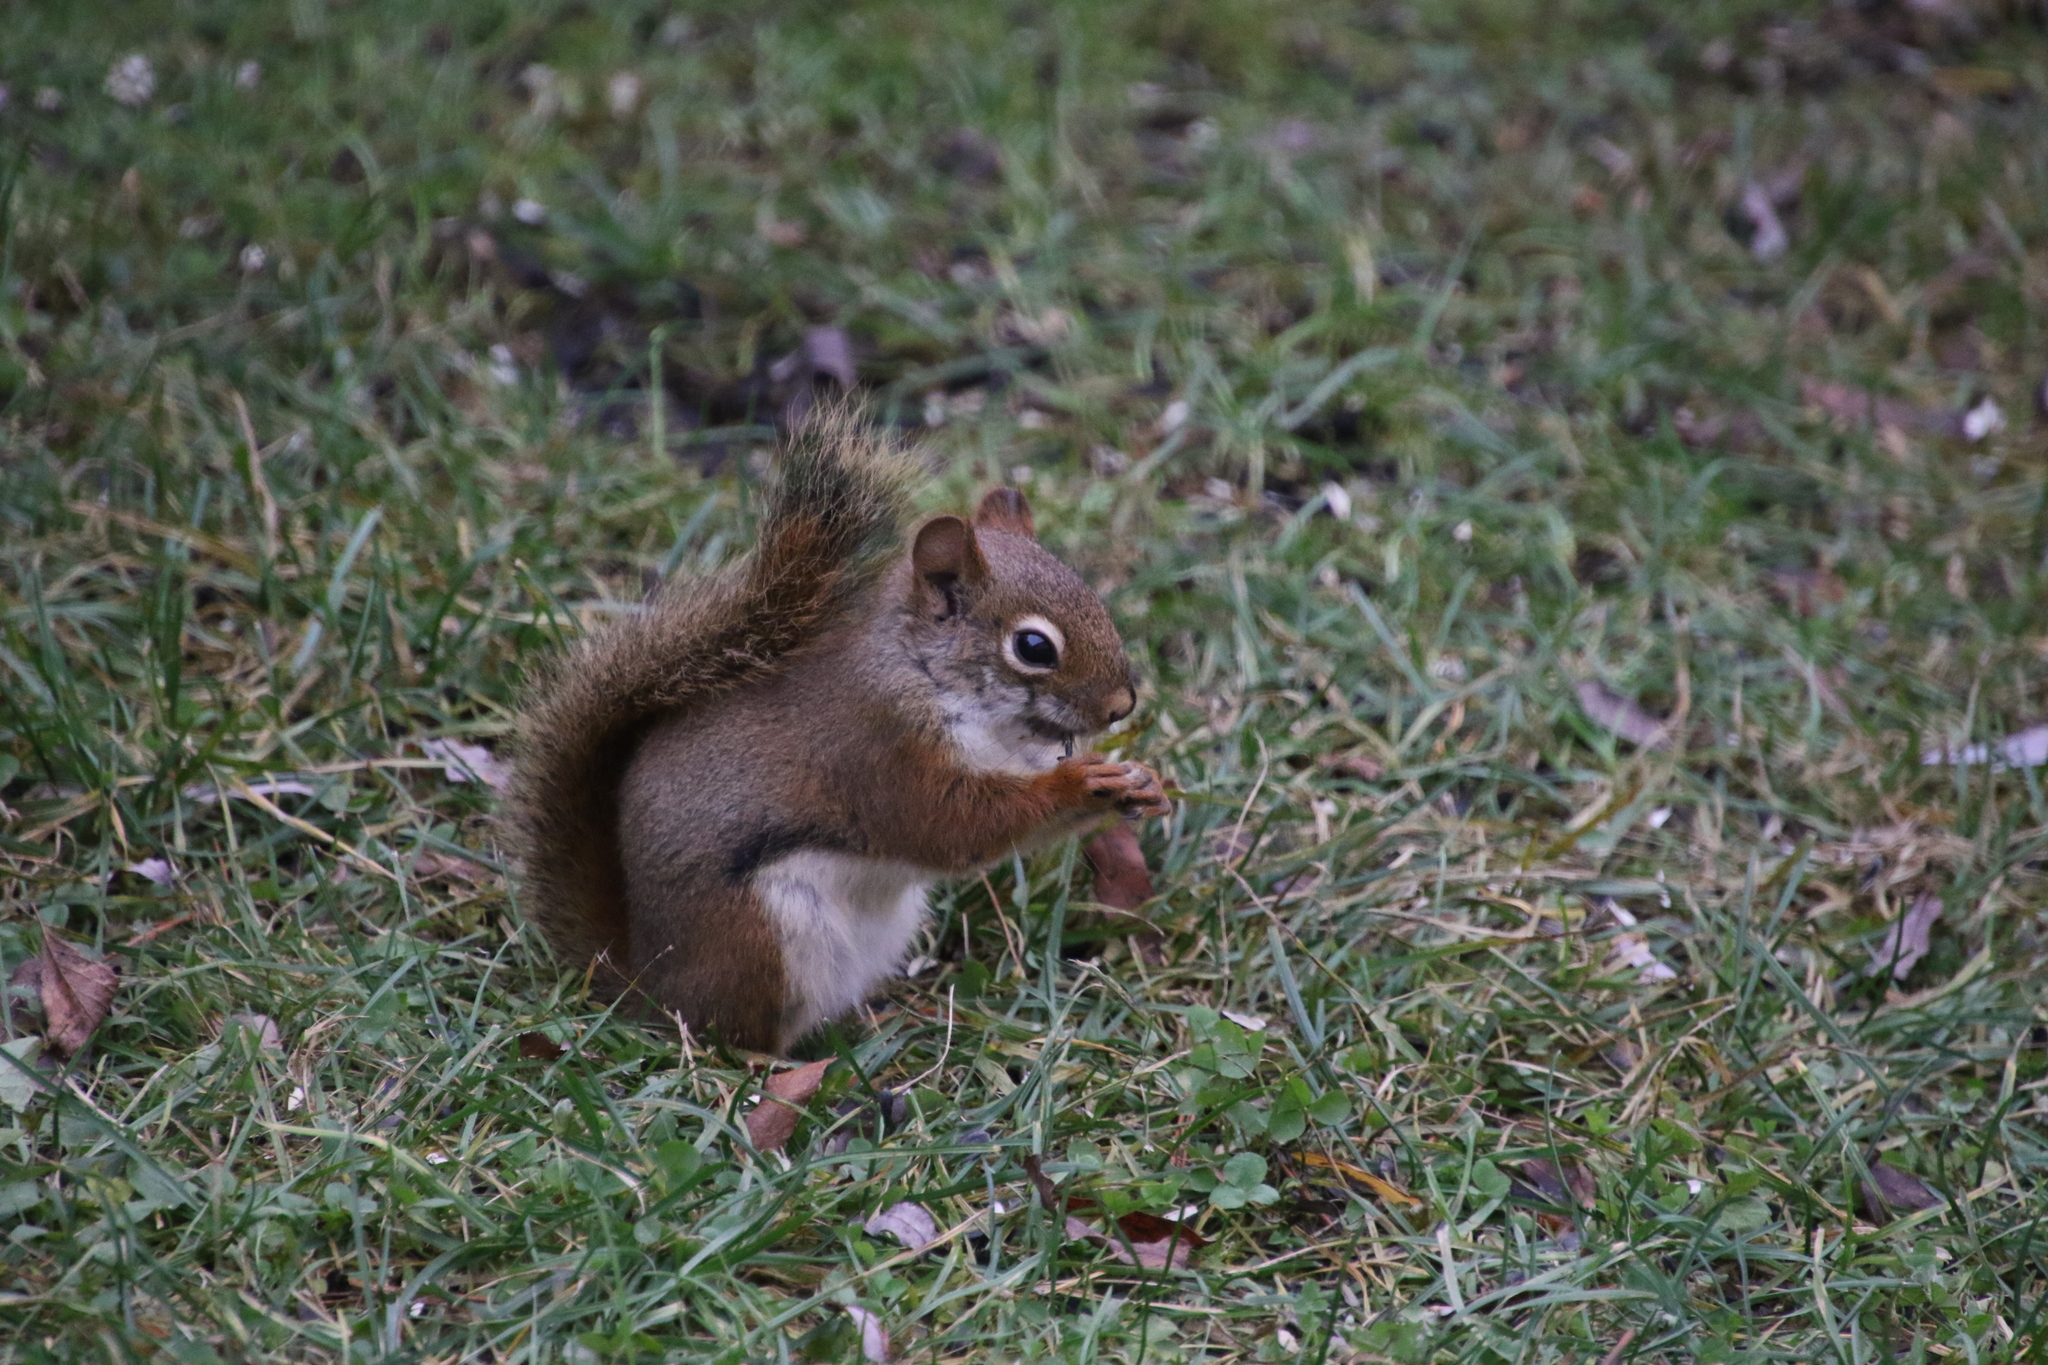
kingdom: Animalia
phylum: Chordata
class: Mammalia
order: Rodentia
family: Sciuridae
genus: Tamiasciurus
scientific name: Tamiasciurus hudsonicus
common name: Red squirrel
